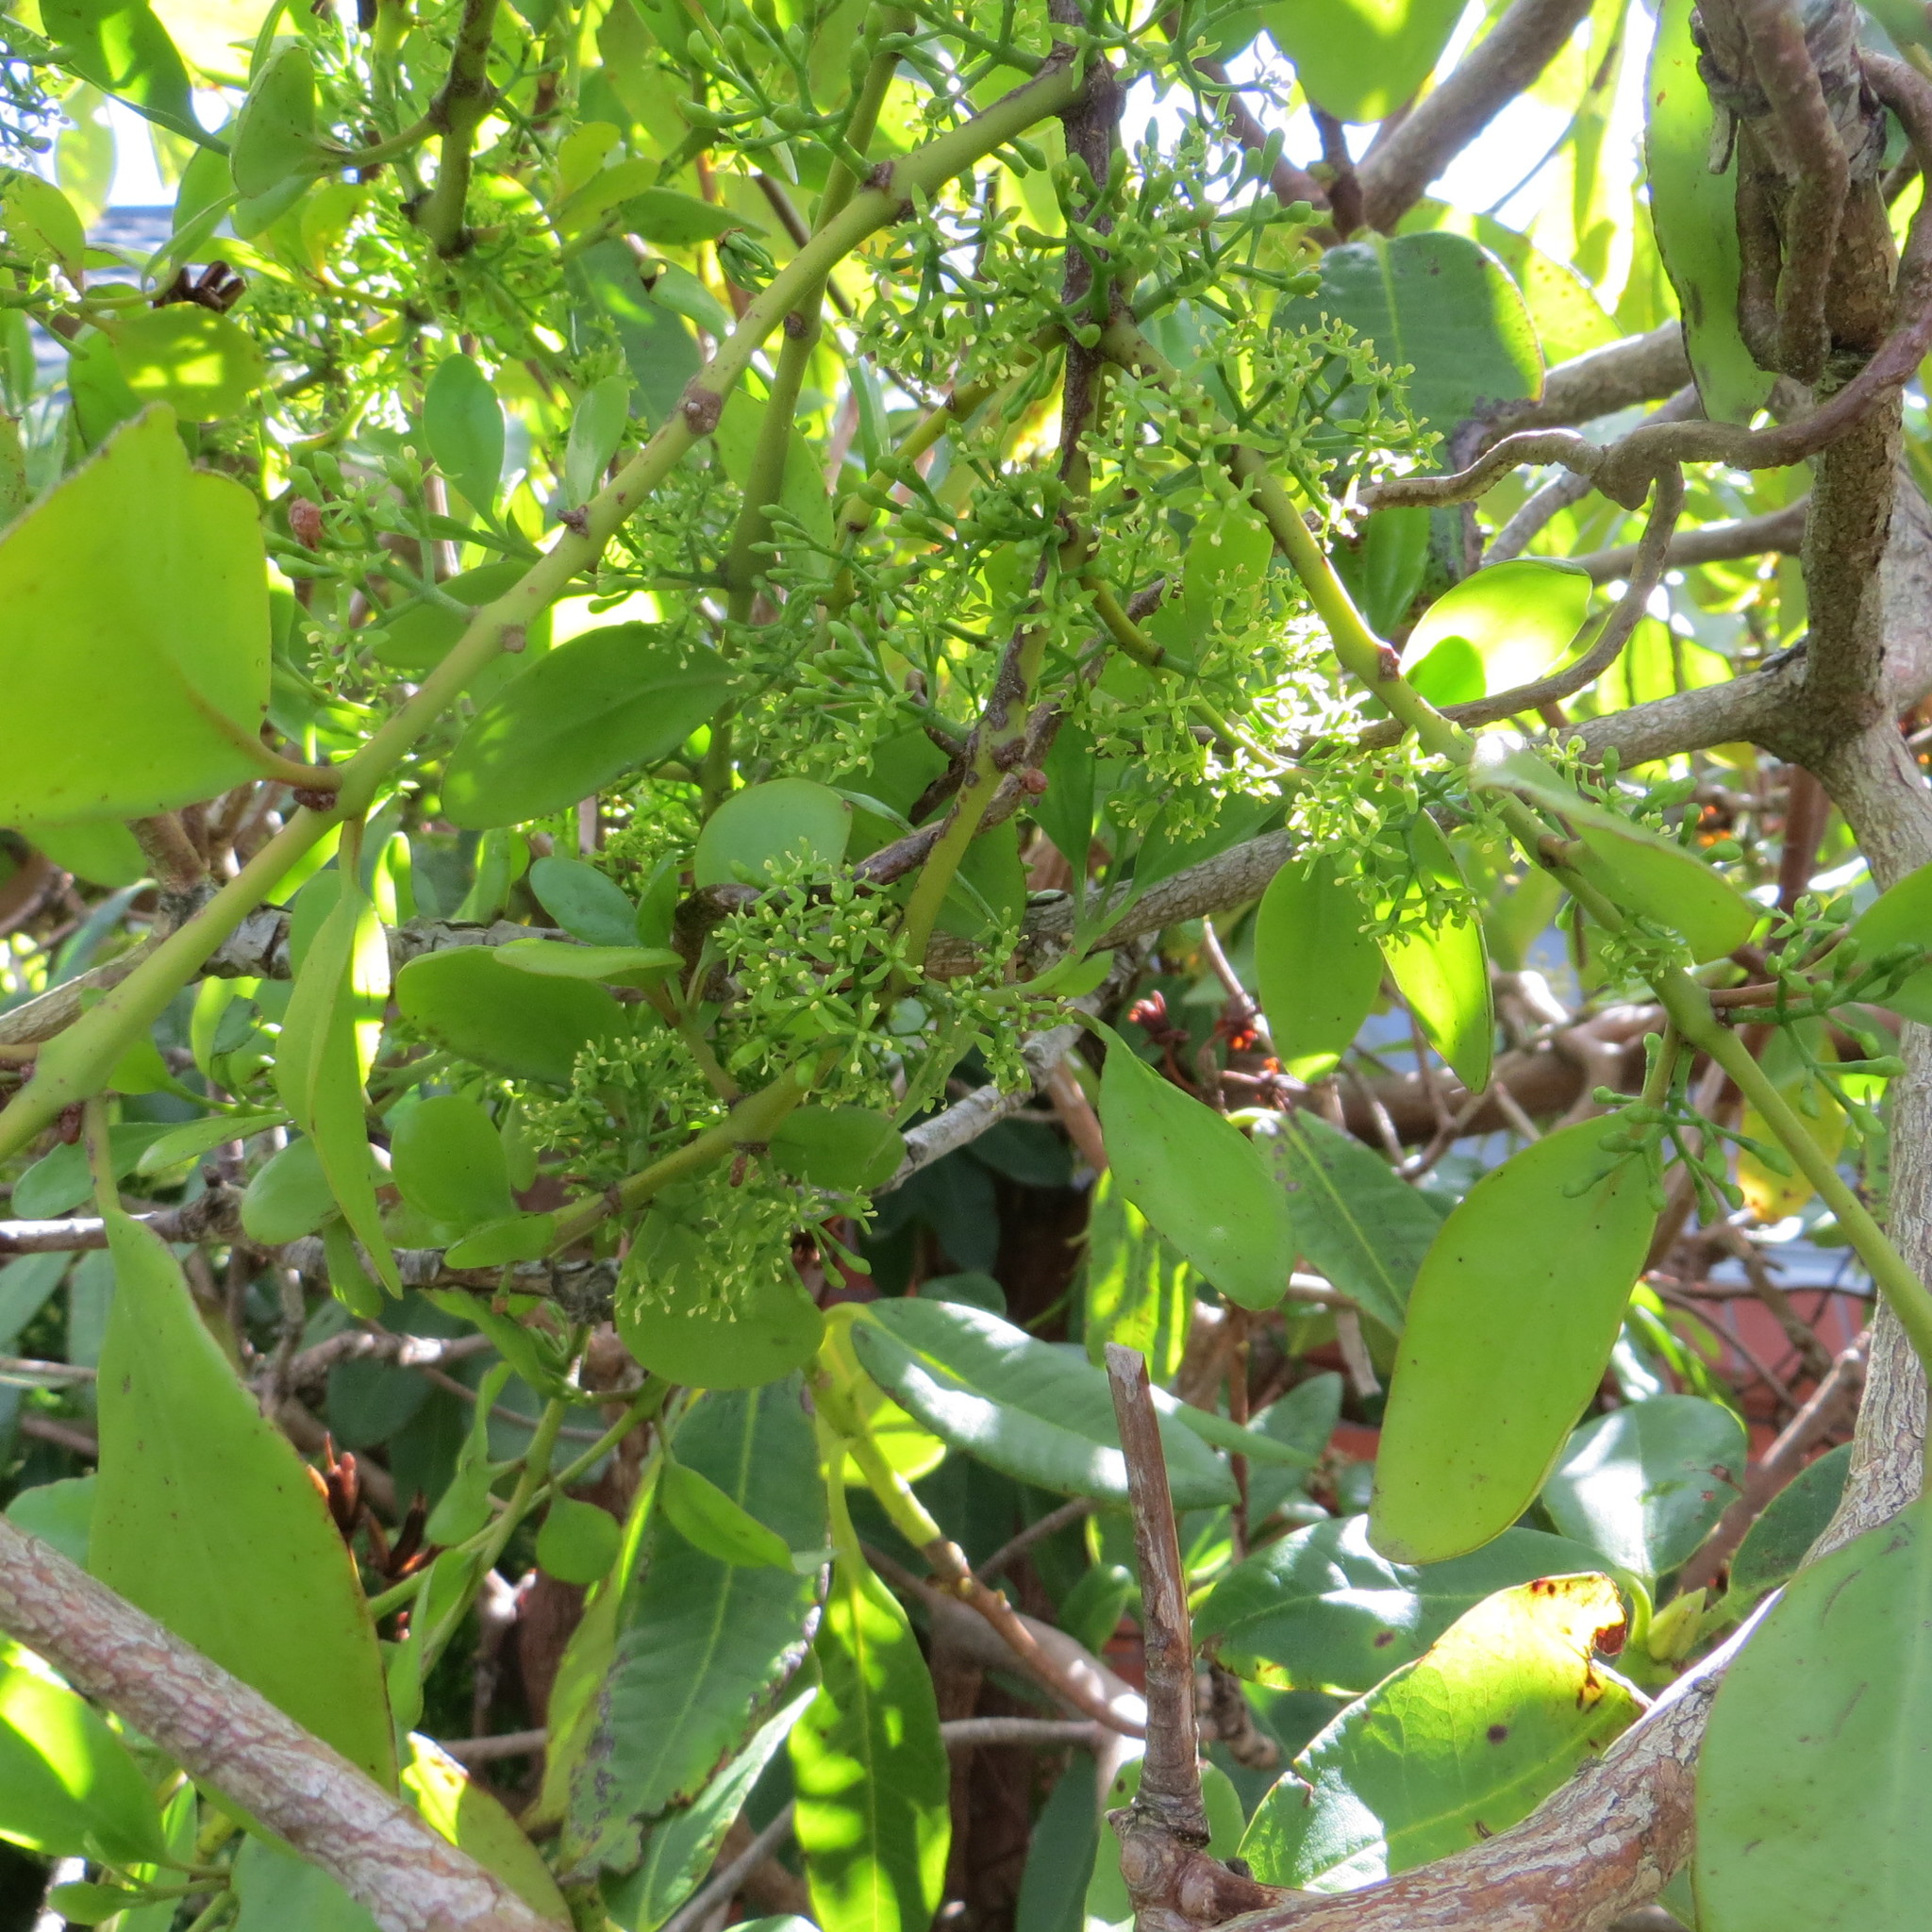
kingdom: Plantae
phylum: Tracheophyta
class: Magnoliopsida
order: Santalales
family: Loranthaceae
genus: Ileostylus
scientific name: Ileostylus micranthus
